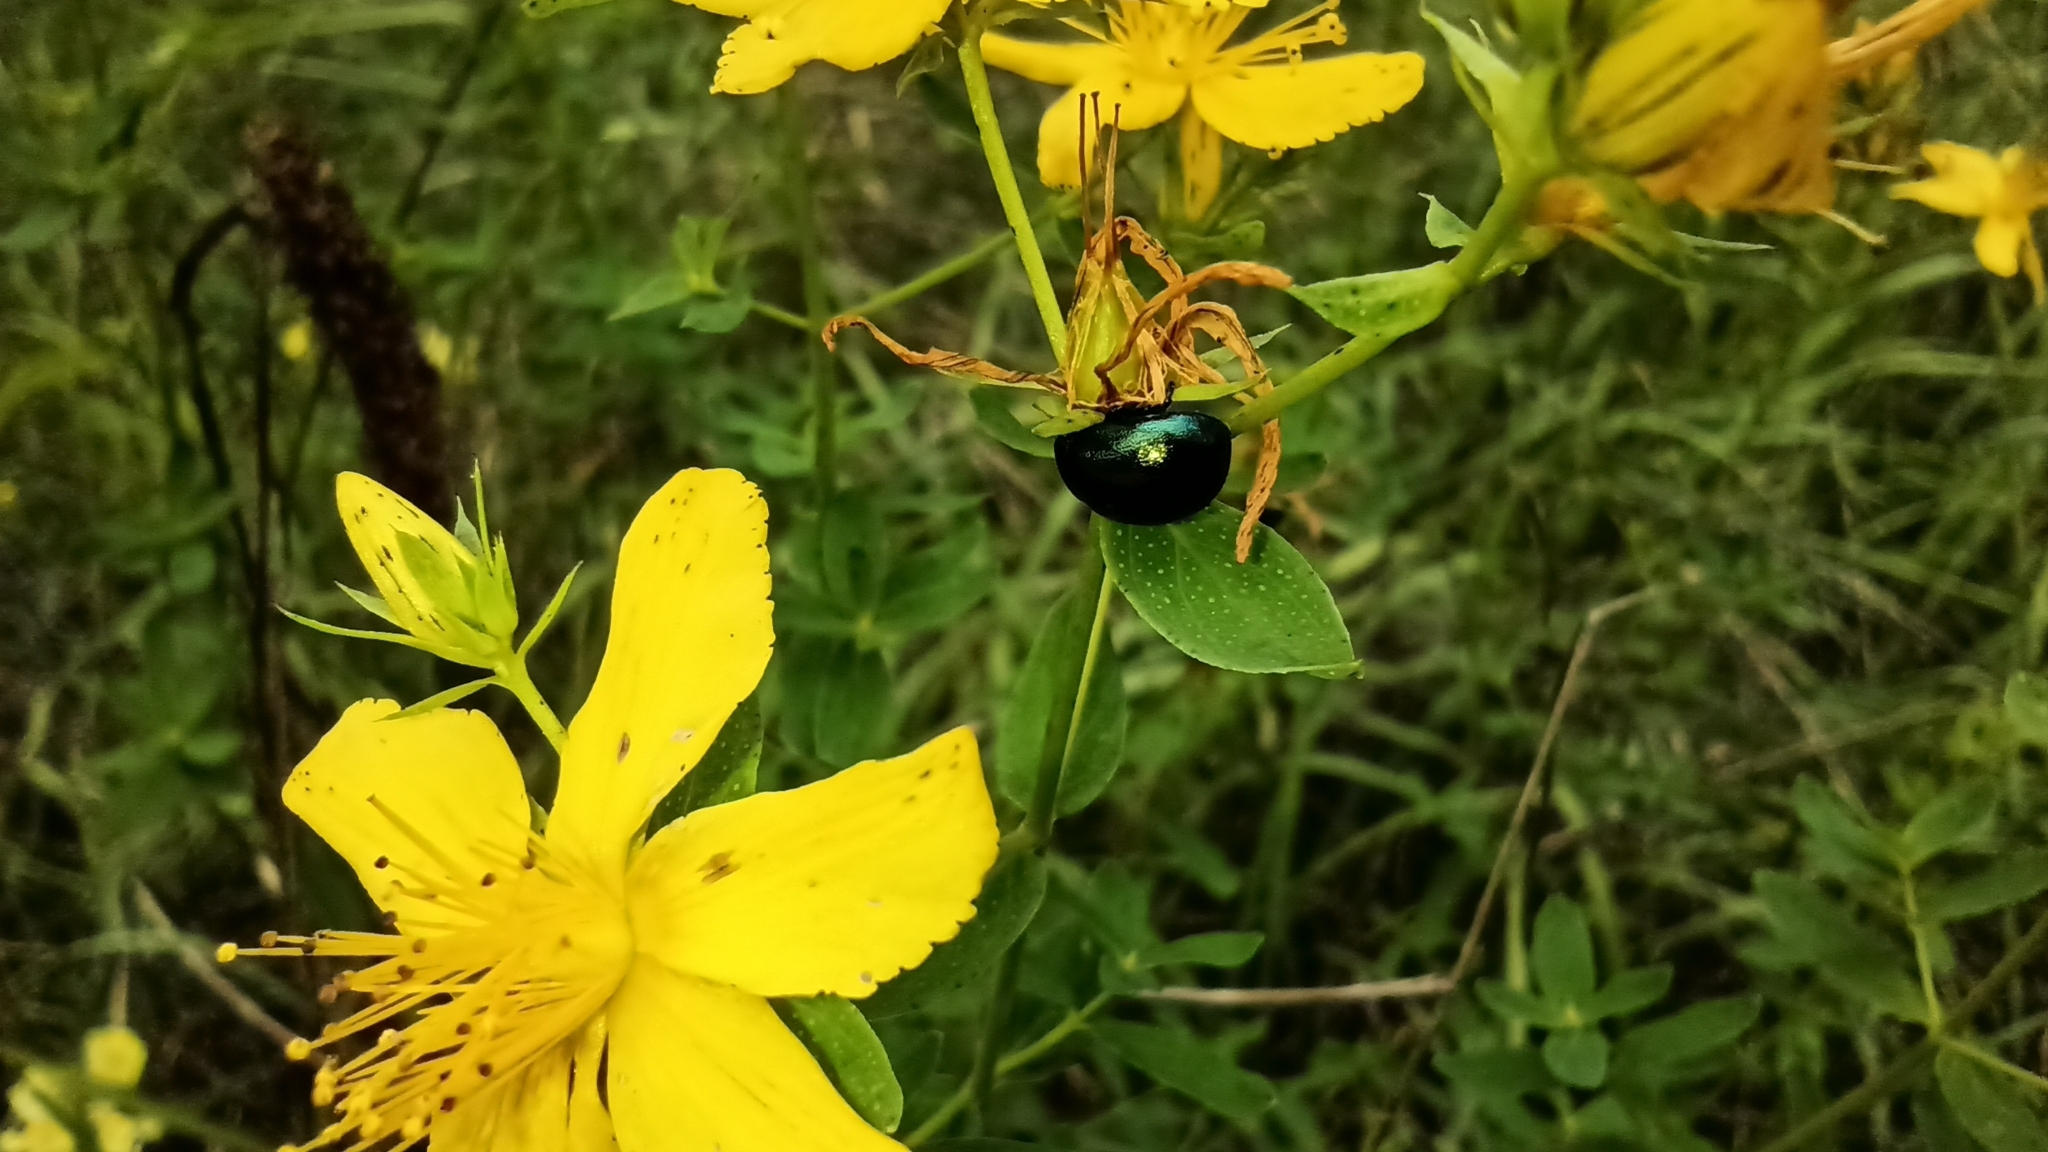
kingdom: Animalia
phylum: Arthropoda
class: Insecta
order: Coleoptera
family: Chrysomelidae
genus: Chrysolina
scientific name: Chrysolina hyperici
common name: St. johnswort beetle
